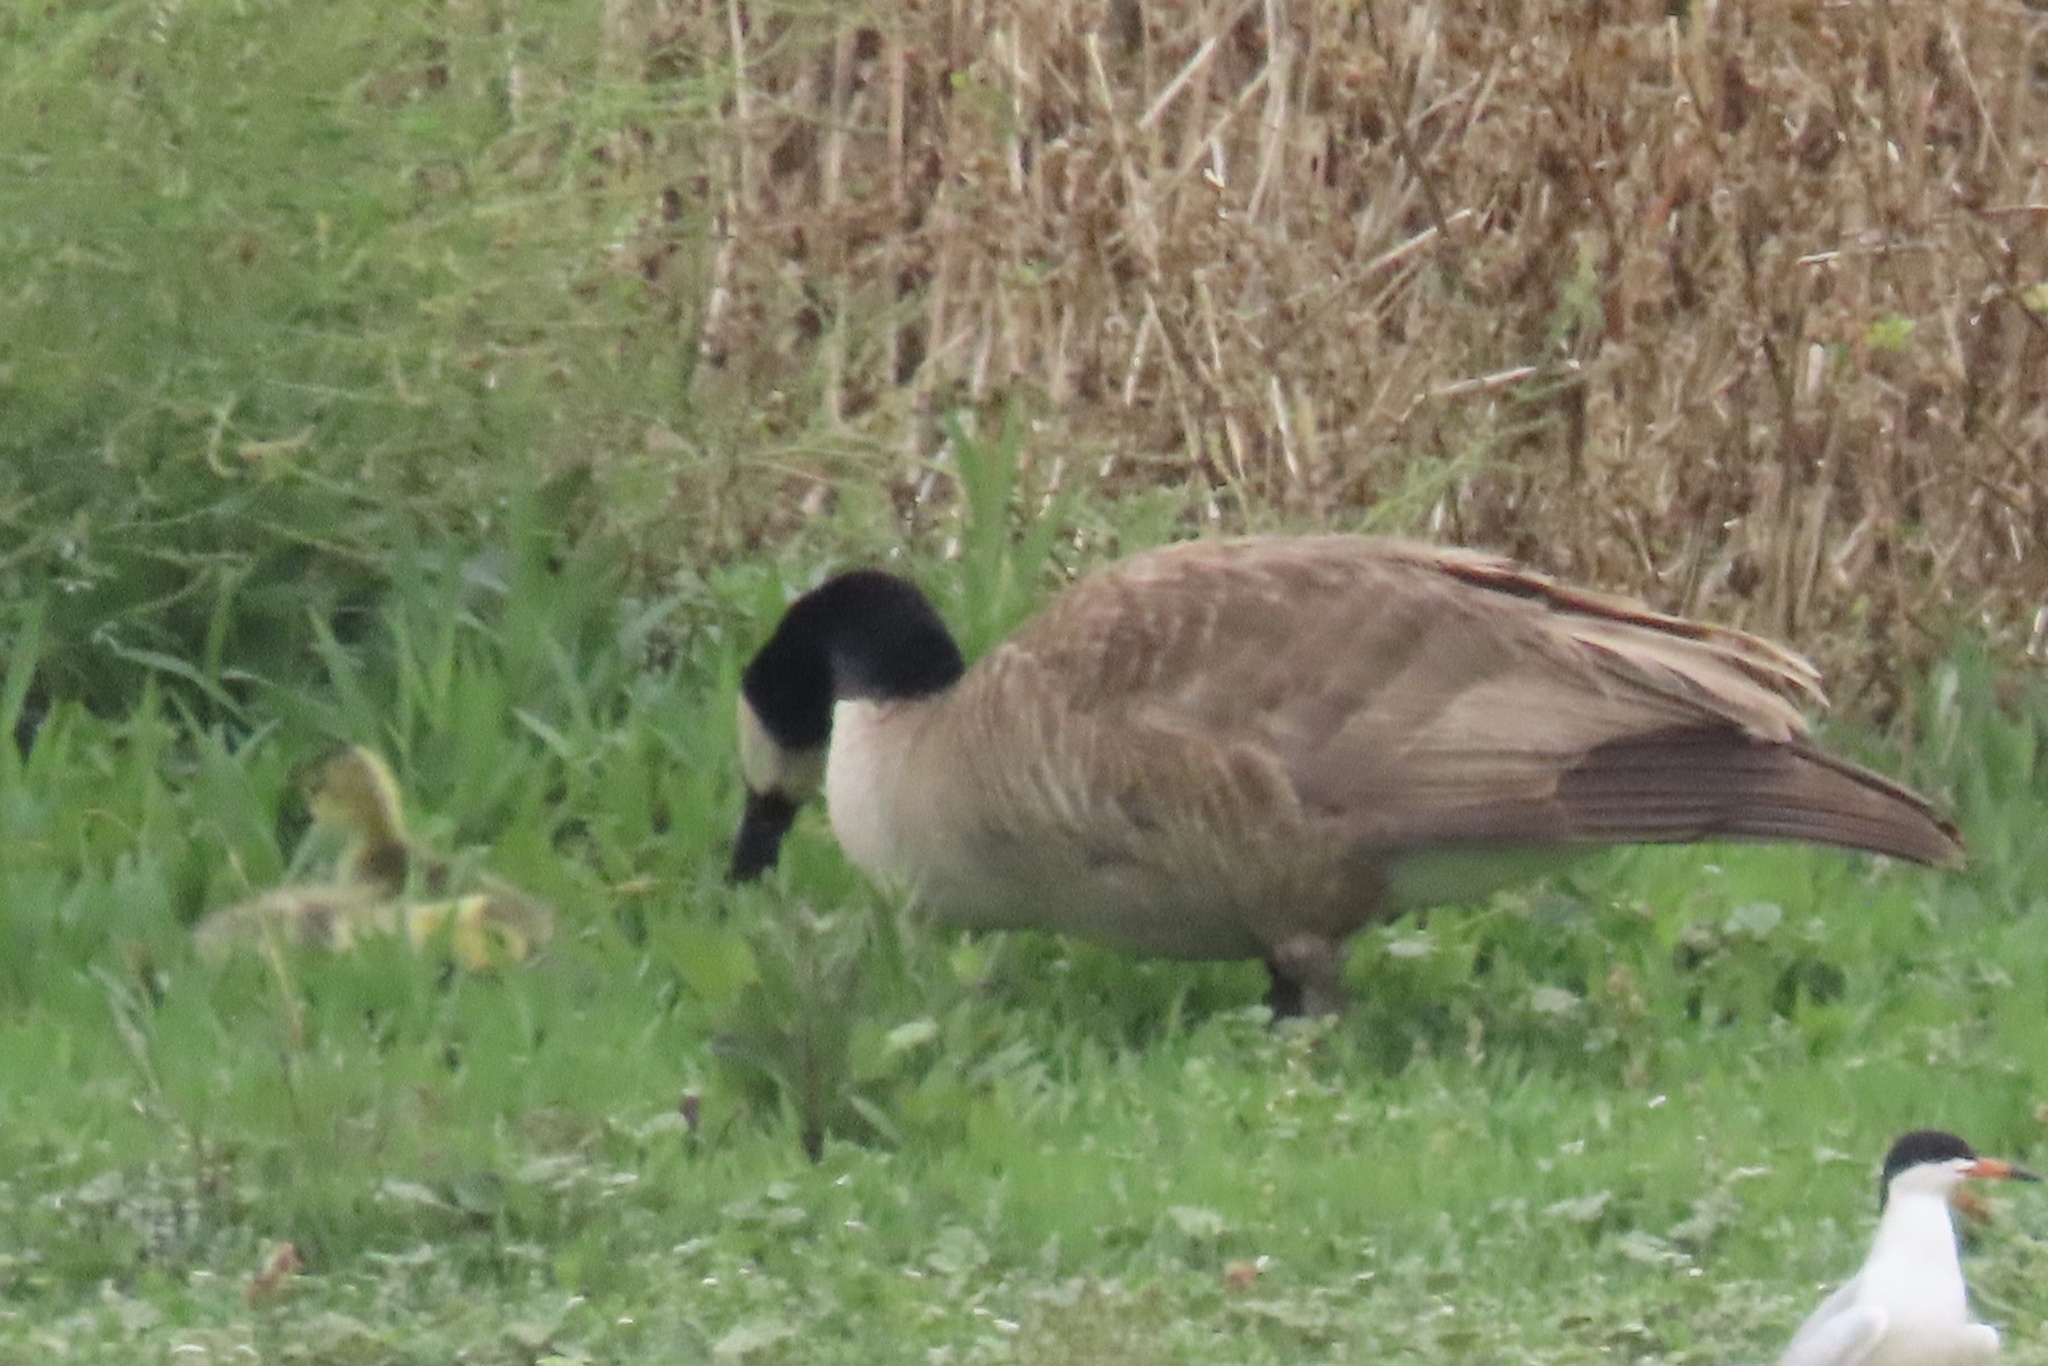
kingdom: Animalia
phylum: Chordata
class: Aves
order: Anseriformes
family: Anatidae
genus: Branta
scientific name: Branta canadensis
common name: Canada goose
